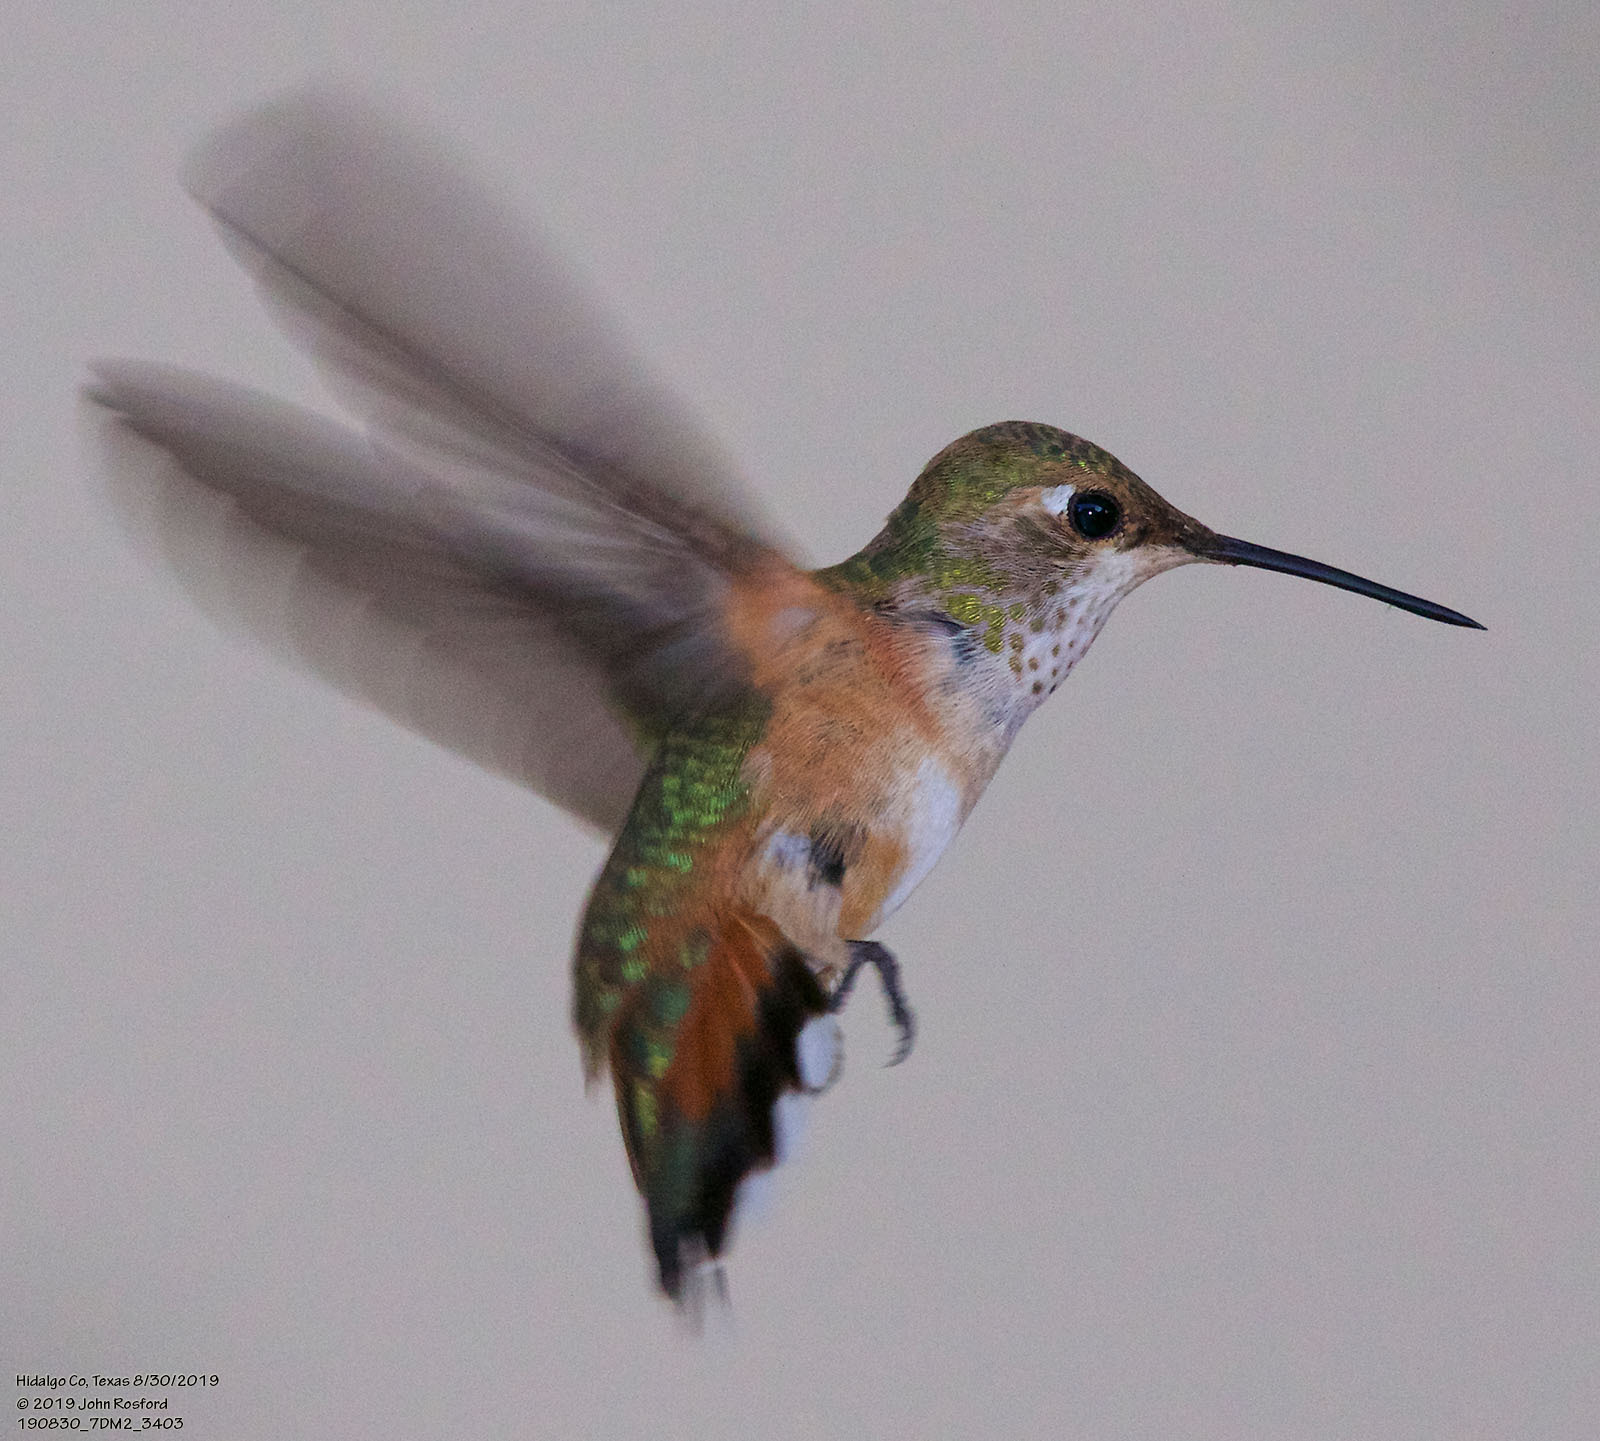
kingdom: Animalia
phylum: Chordata
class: Aves
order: Apodiformes
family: Trochilidae
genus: Selasphorus
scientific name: Selasphorus rufus
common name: Rufous hummingbird
